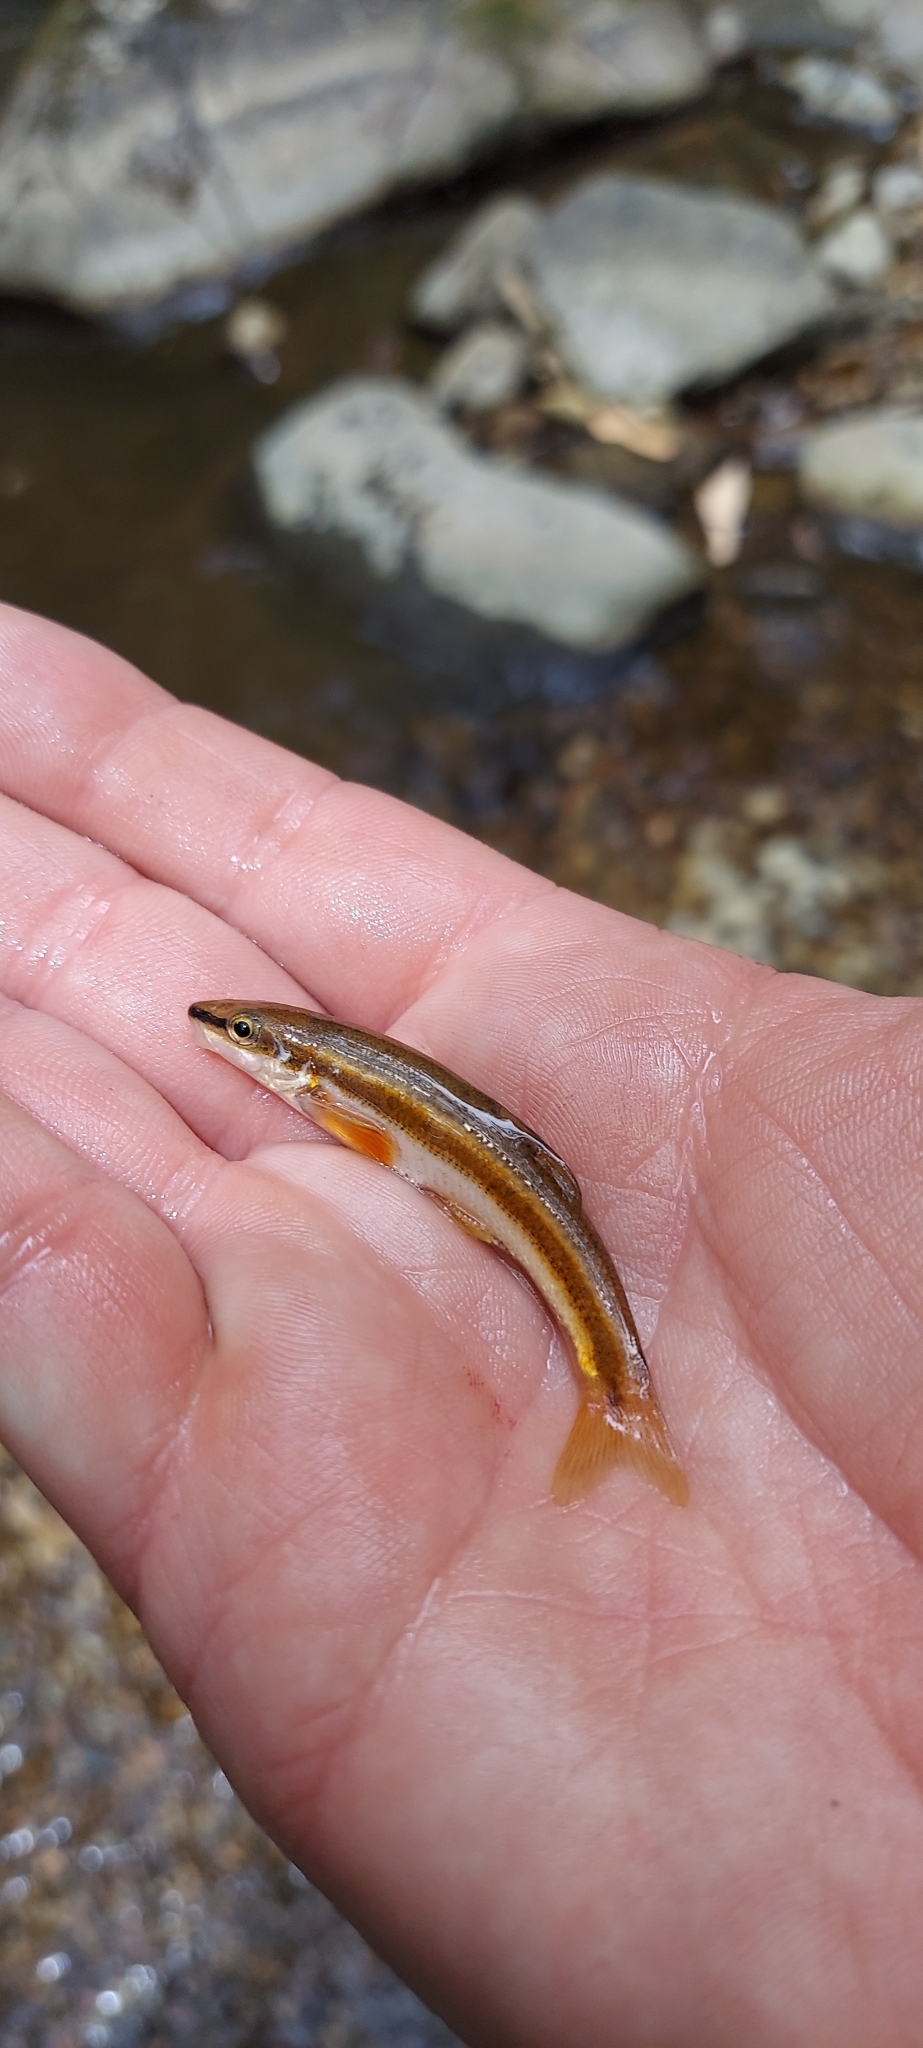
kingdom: Animalia
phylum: Chordata
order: Cypriniformes
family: Cyprinidae
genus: Rhinichthys
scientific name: Rhinichthys atratulus
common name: Eastern blacknose dace
